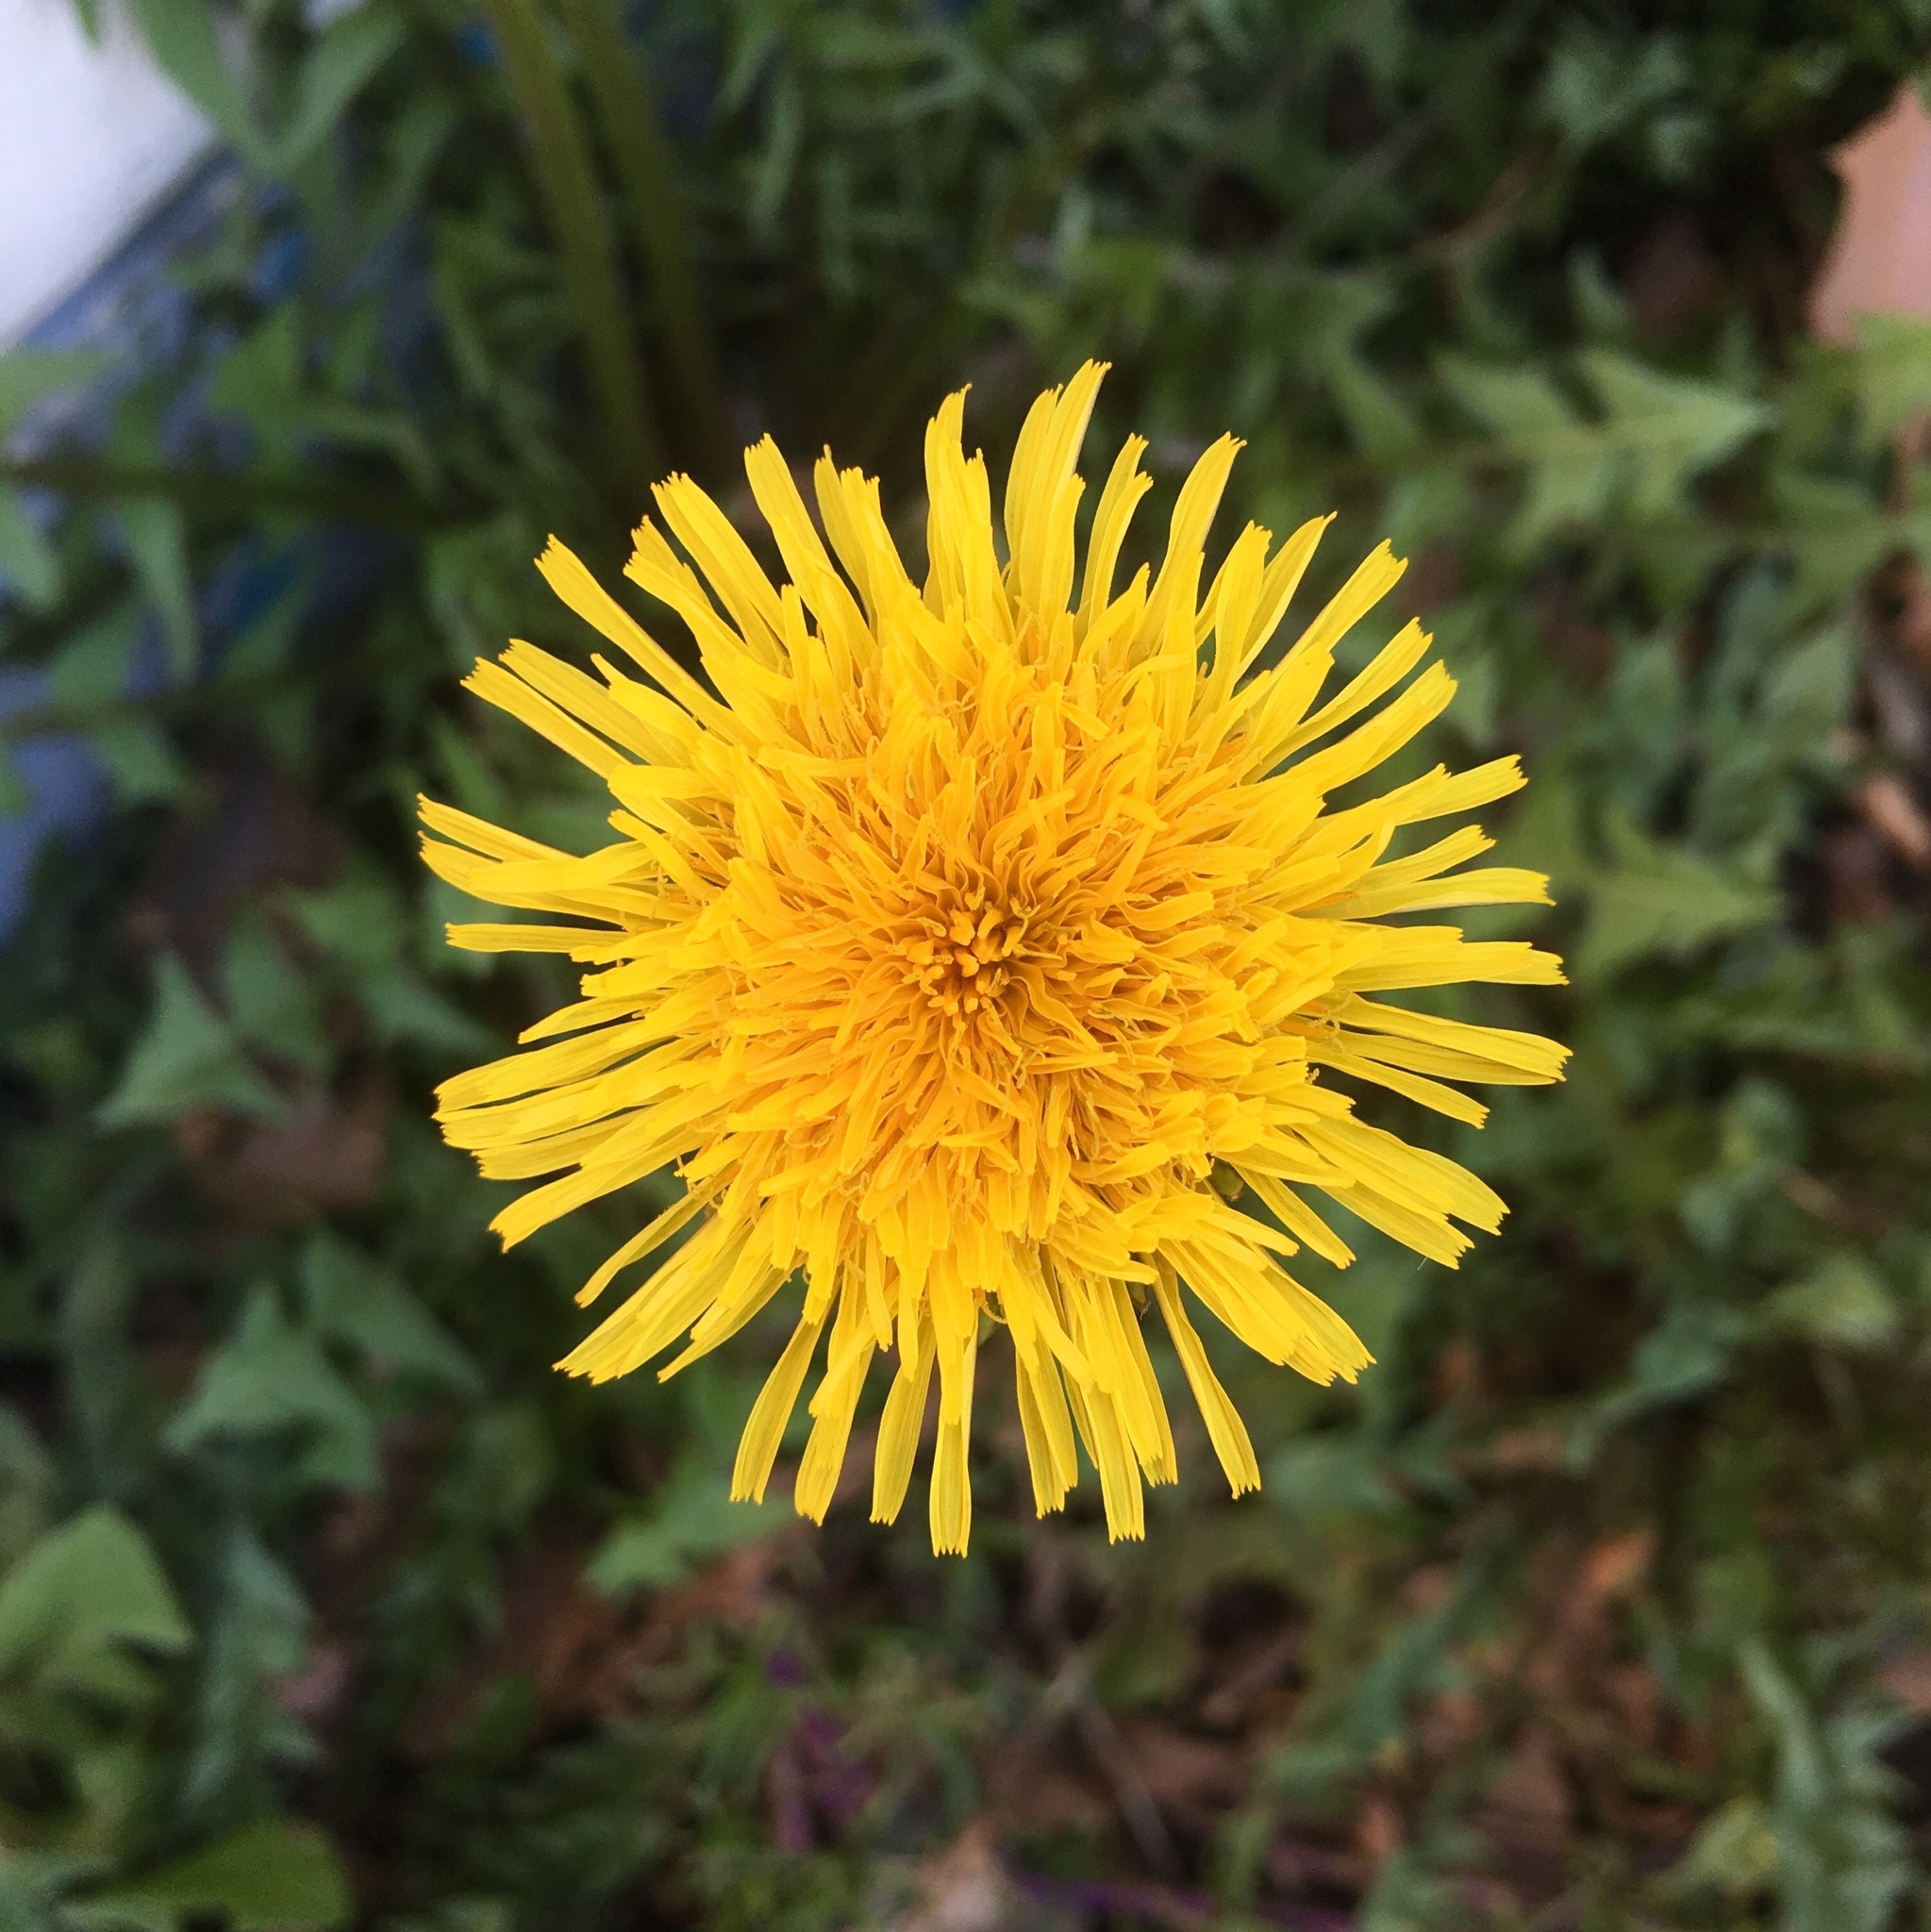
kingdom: Plantae
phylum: Tracheophyta
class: Magnoliopsida
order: Asterales
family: Asteraceae
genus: Taraxacum
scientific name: Taraxacum officinale
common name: Common dandelion
